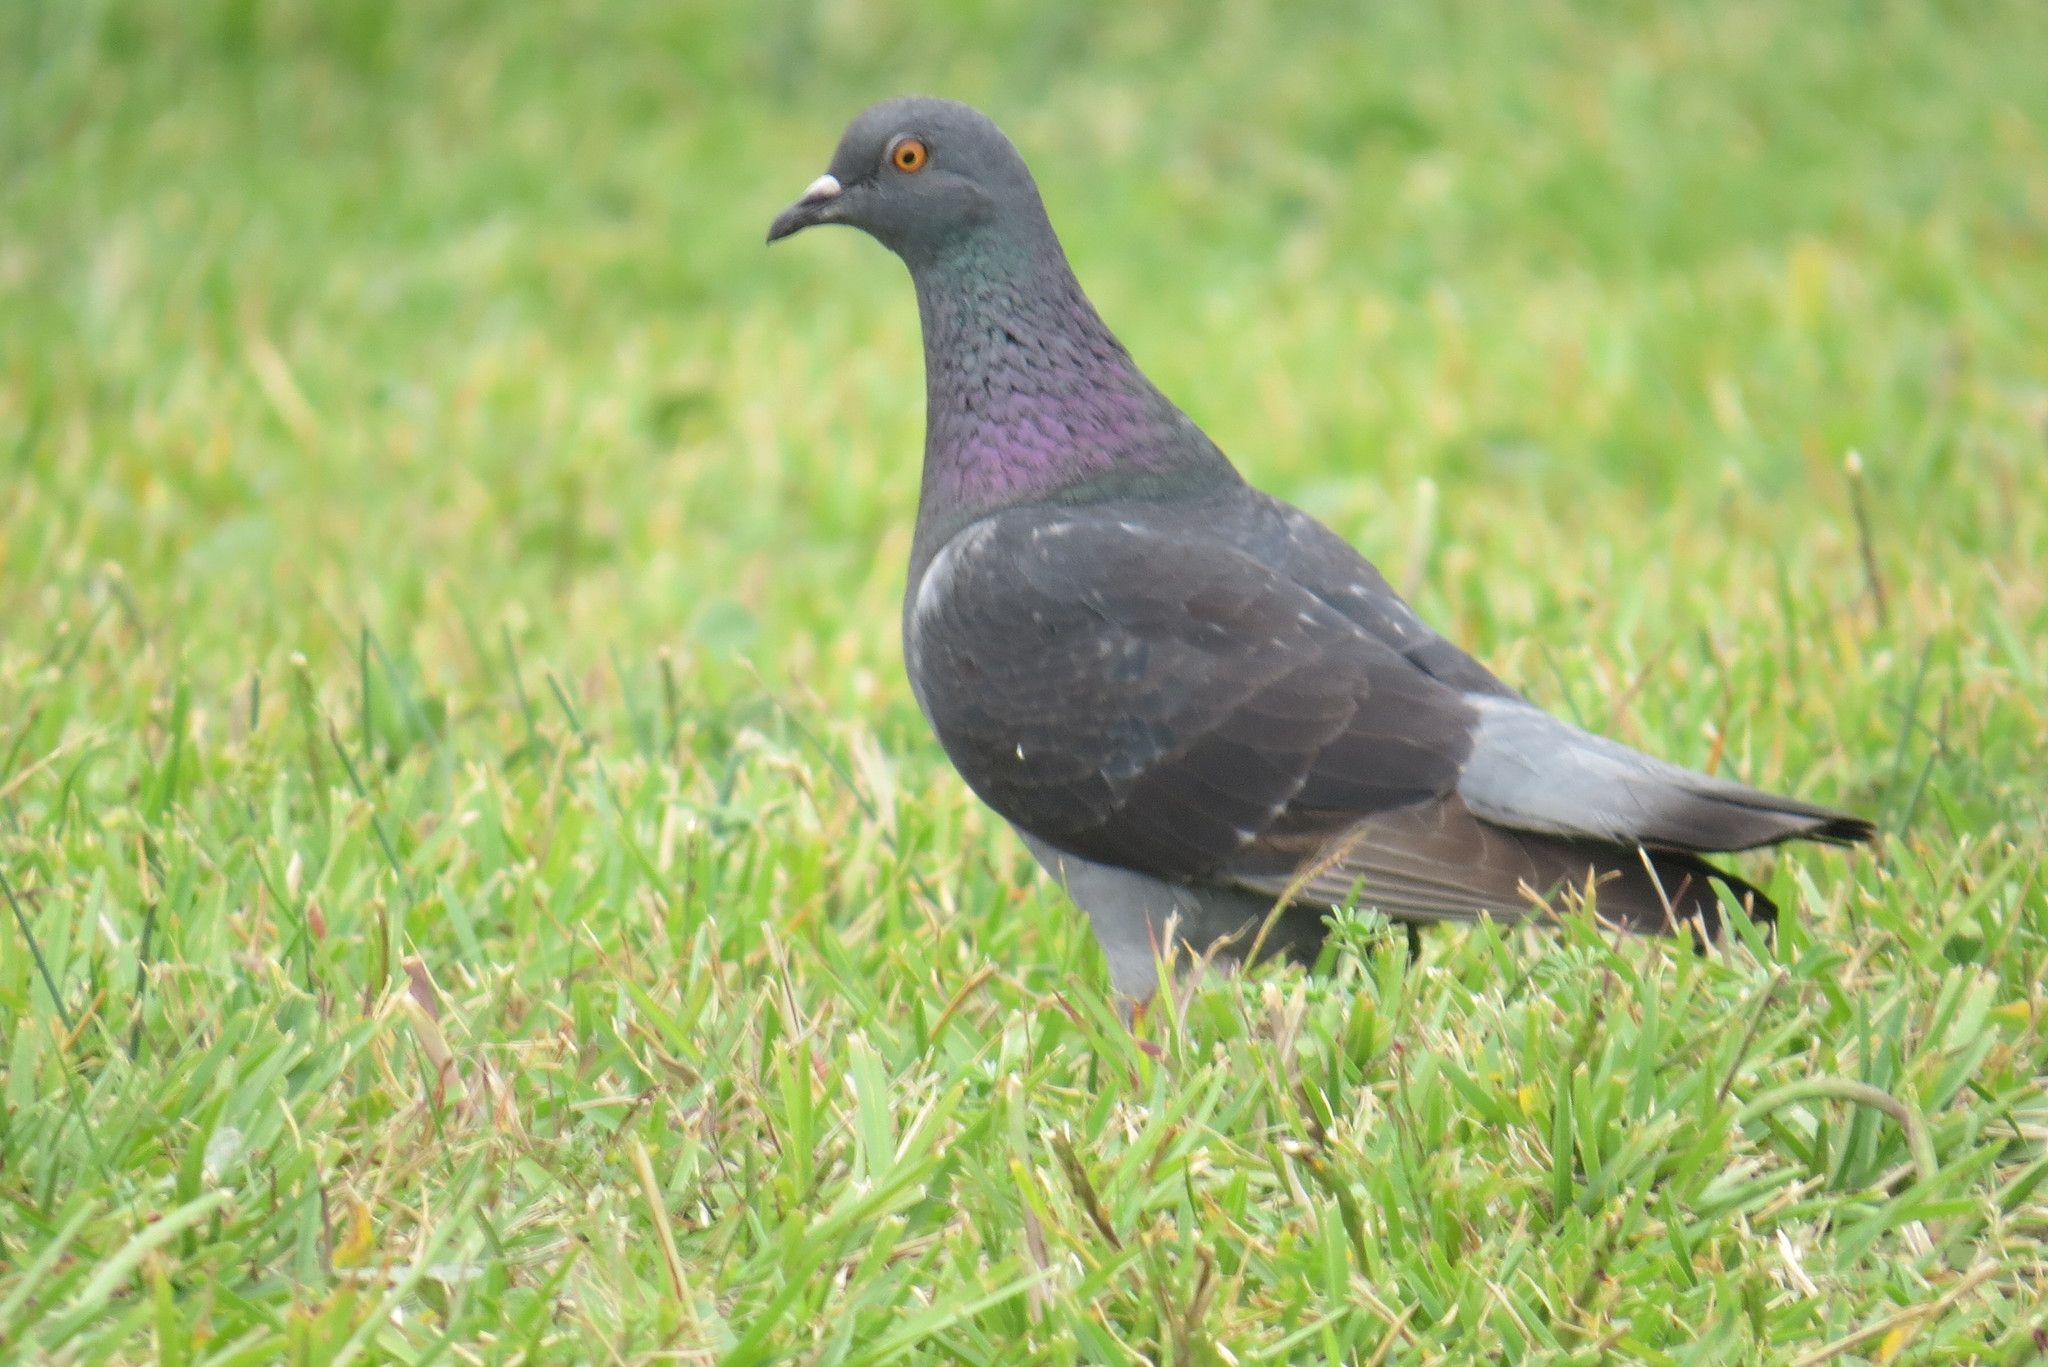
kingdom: Animalia
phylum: Chordata
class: Aves
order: Columbiformes
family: Columbidae
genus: Columba
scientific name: Columba livia
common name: Rock pigeon
